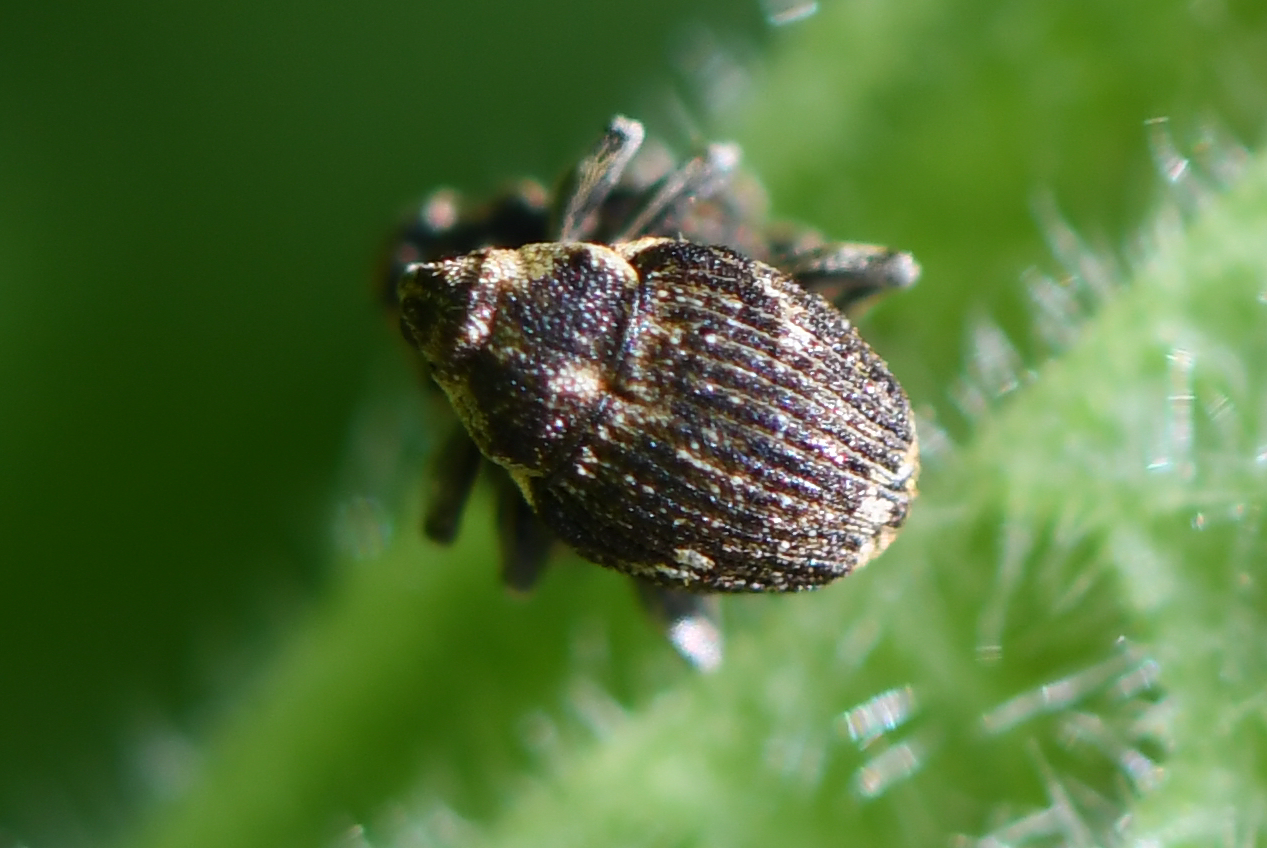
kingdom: Animalia
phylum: Arthropoda
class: Insecta
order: Coleoptera
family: Curculionidae
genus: Nedyus
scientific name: Nedyus quadrimaculatus
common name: Small nettle weevil
